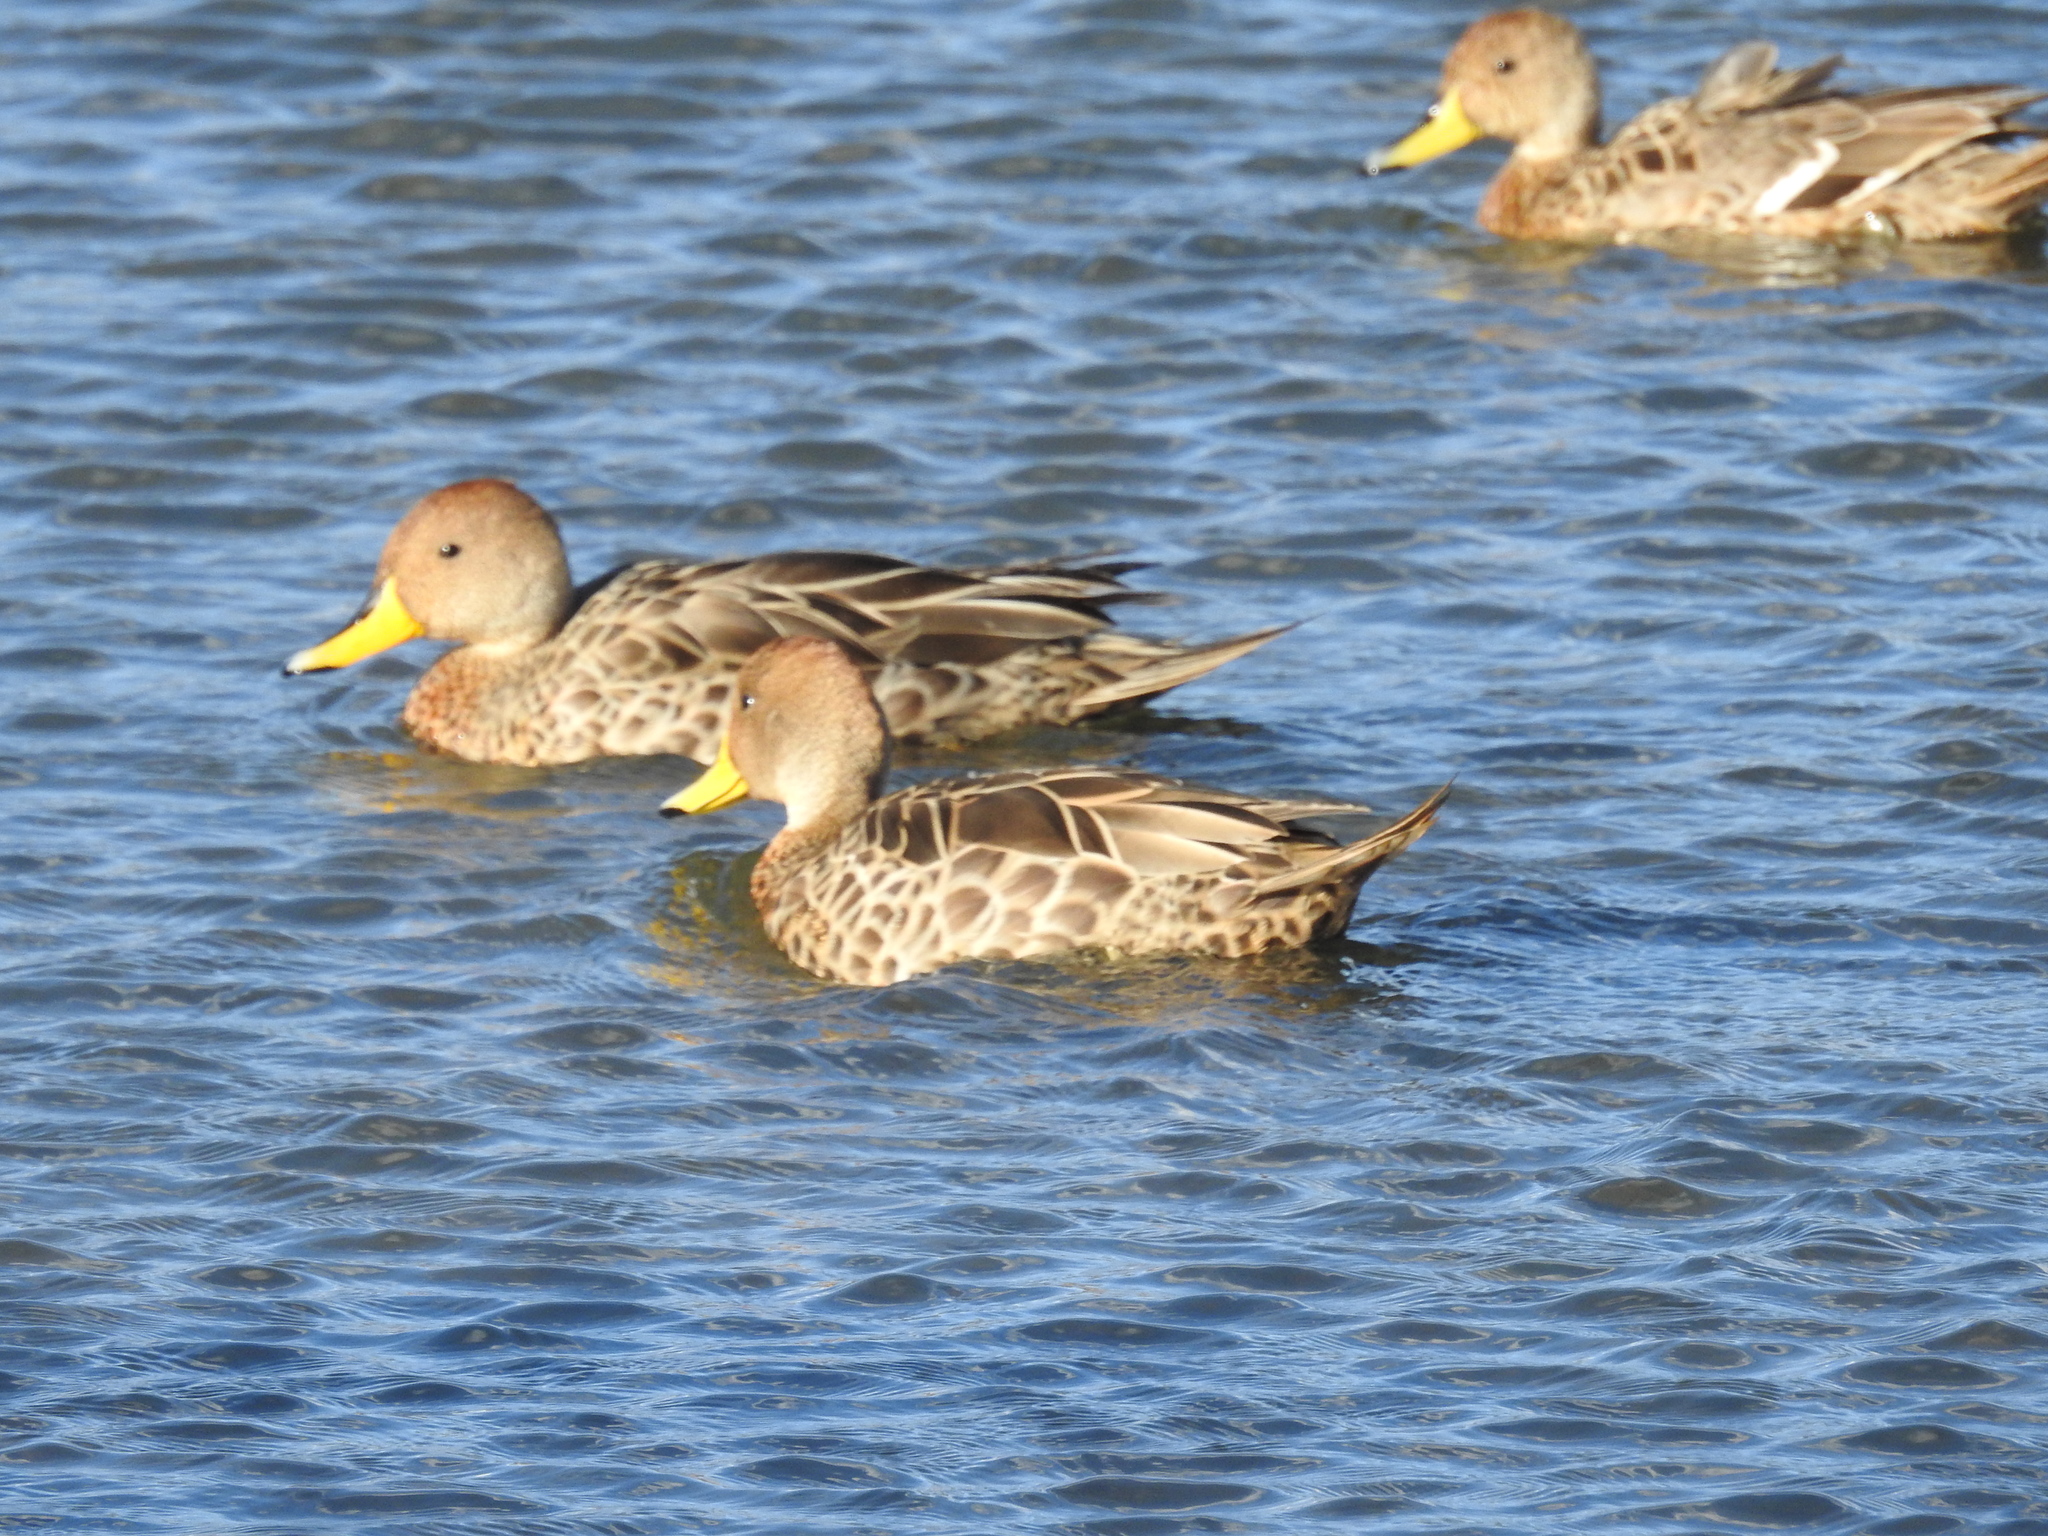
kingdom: Animalia
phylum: Chordata
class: Aves
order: Anseriformes
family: Anatidae
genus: Anas
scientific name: Anas georgica
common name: Yellow-billed pintail
